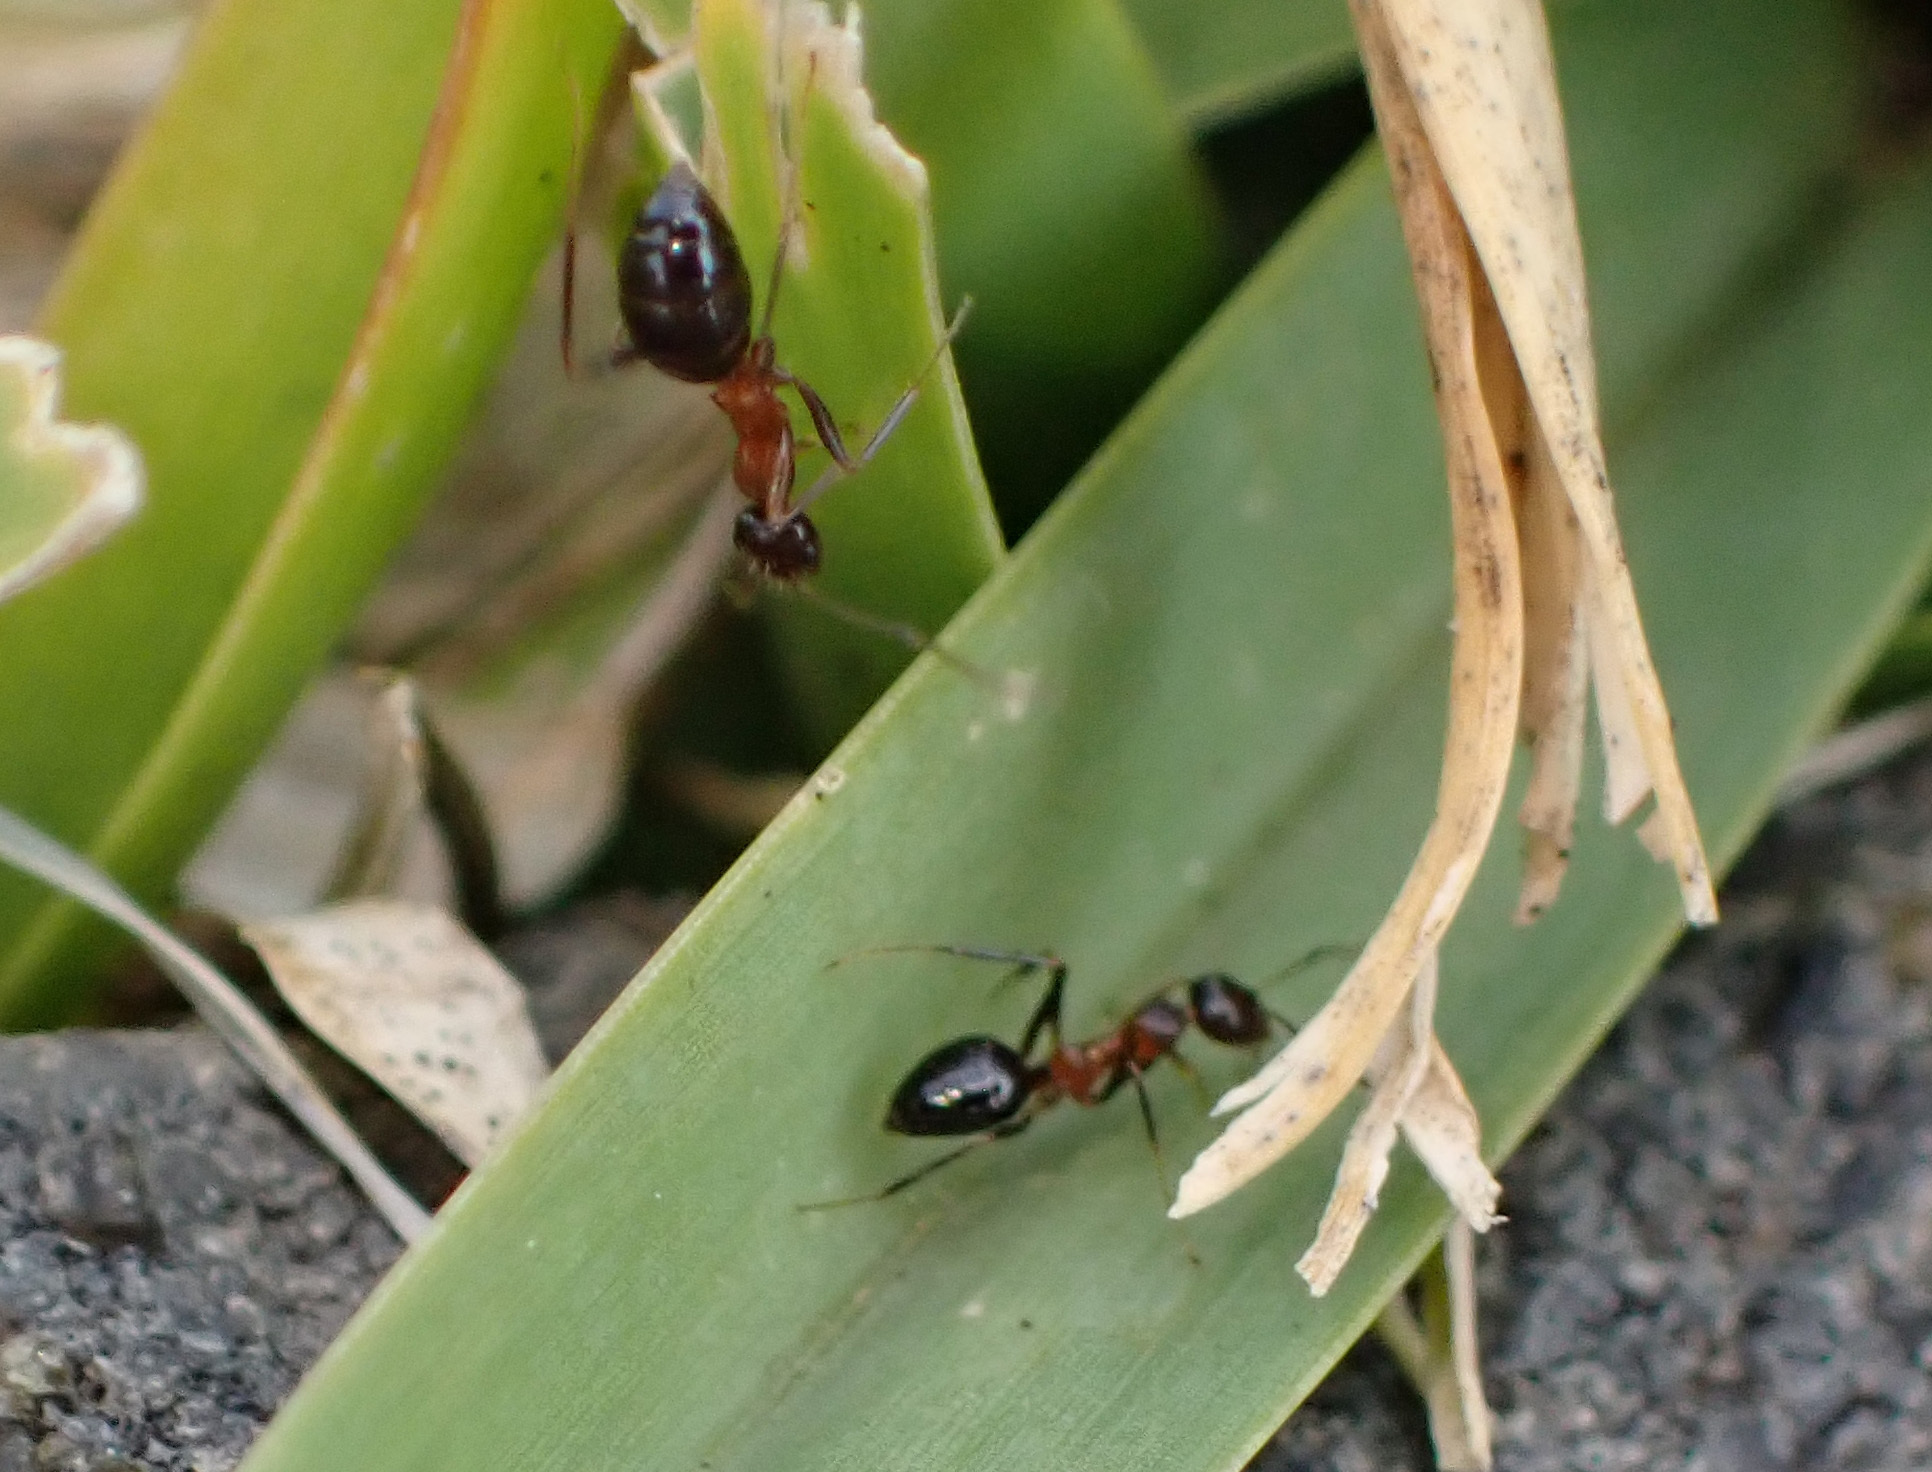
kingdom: Animalia
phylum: Arthropoda
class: Insecta
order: Hymenoptera
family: Formicidae
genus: Lepisiota
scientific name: Lepisiota frauenfeldi
